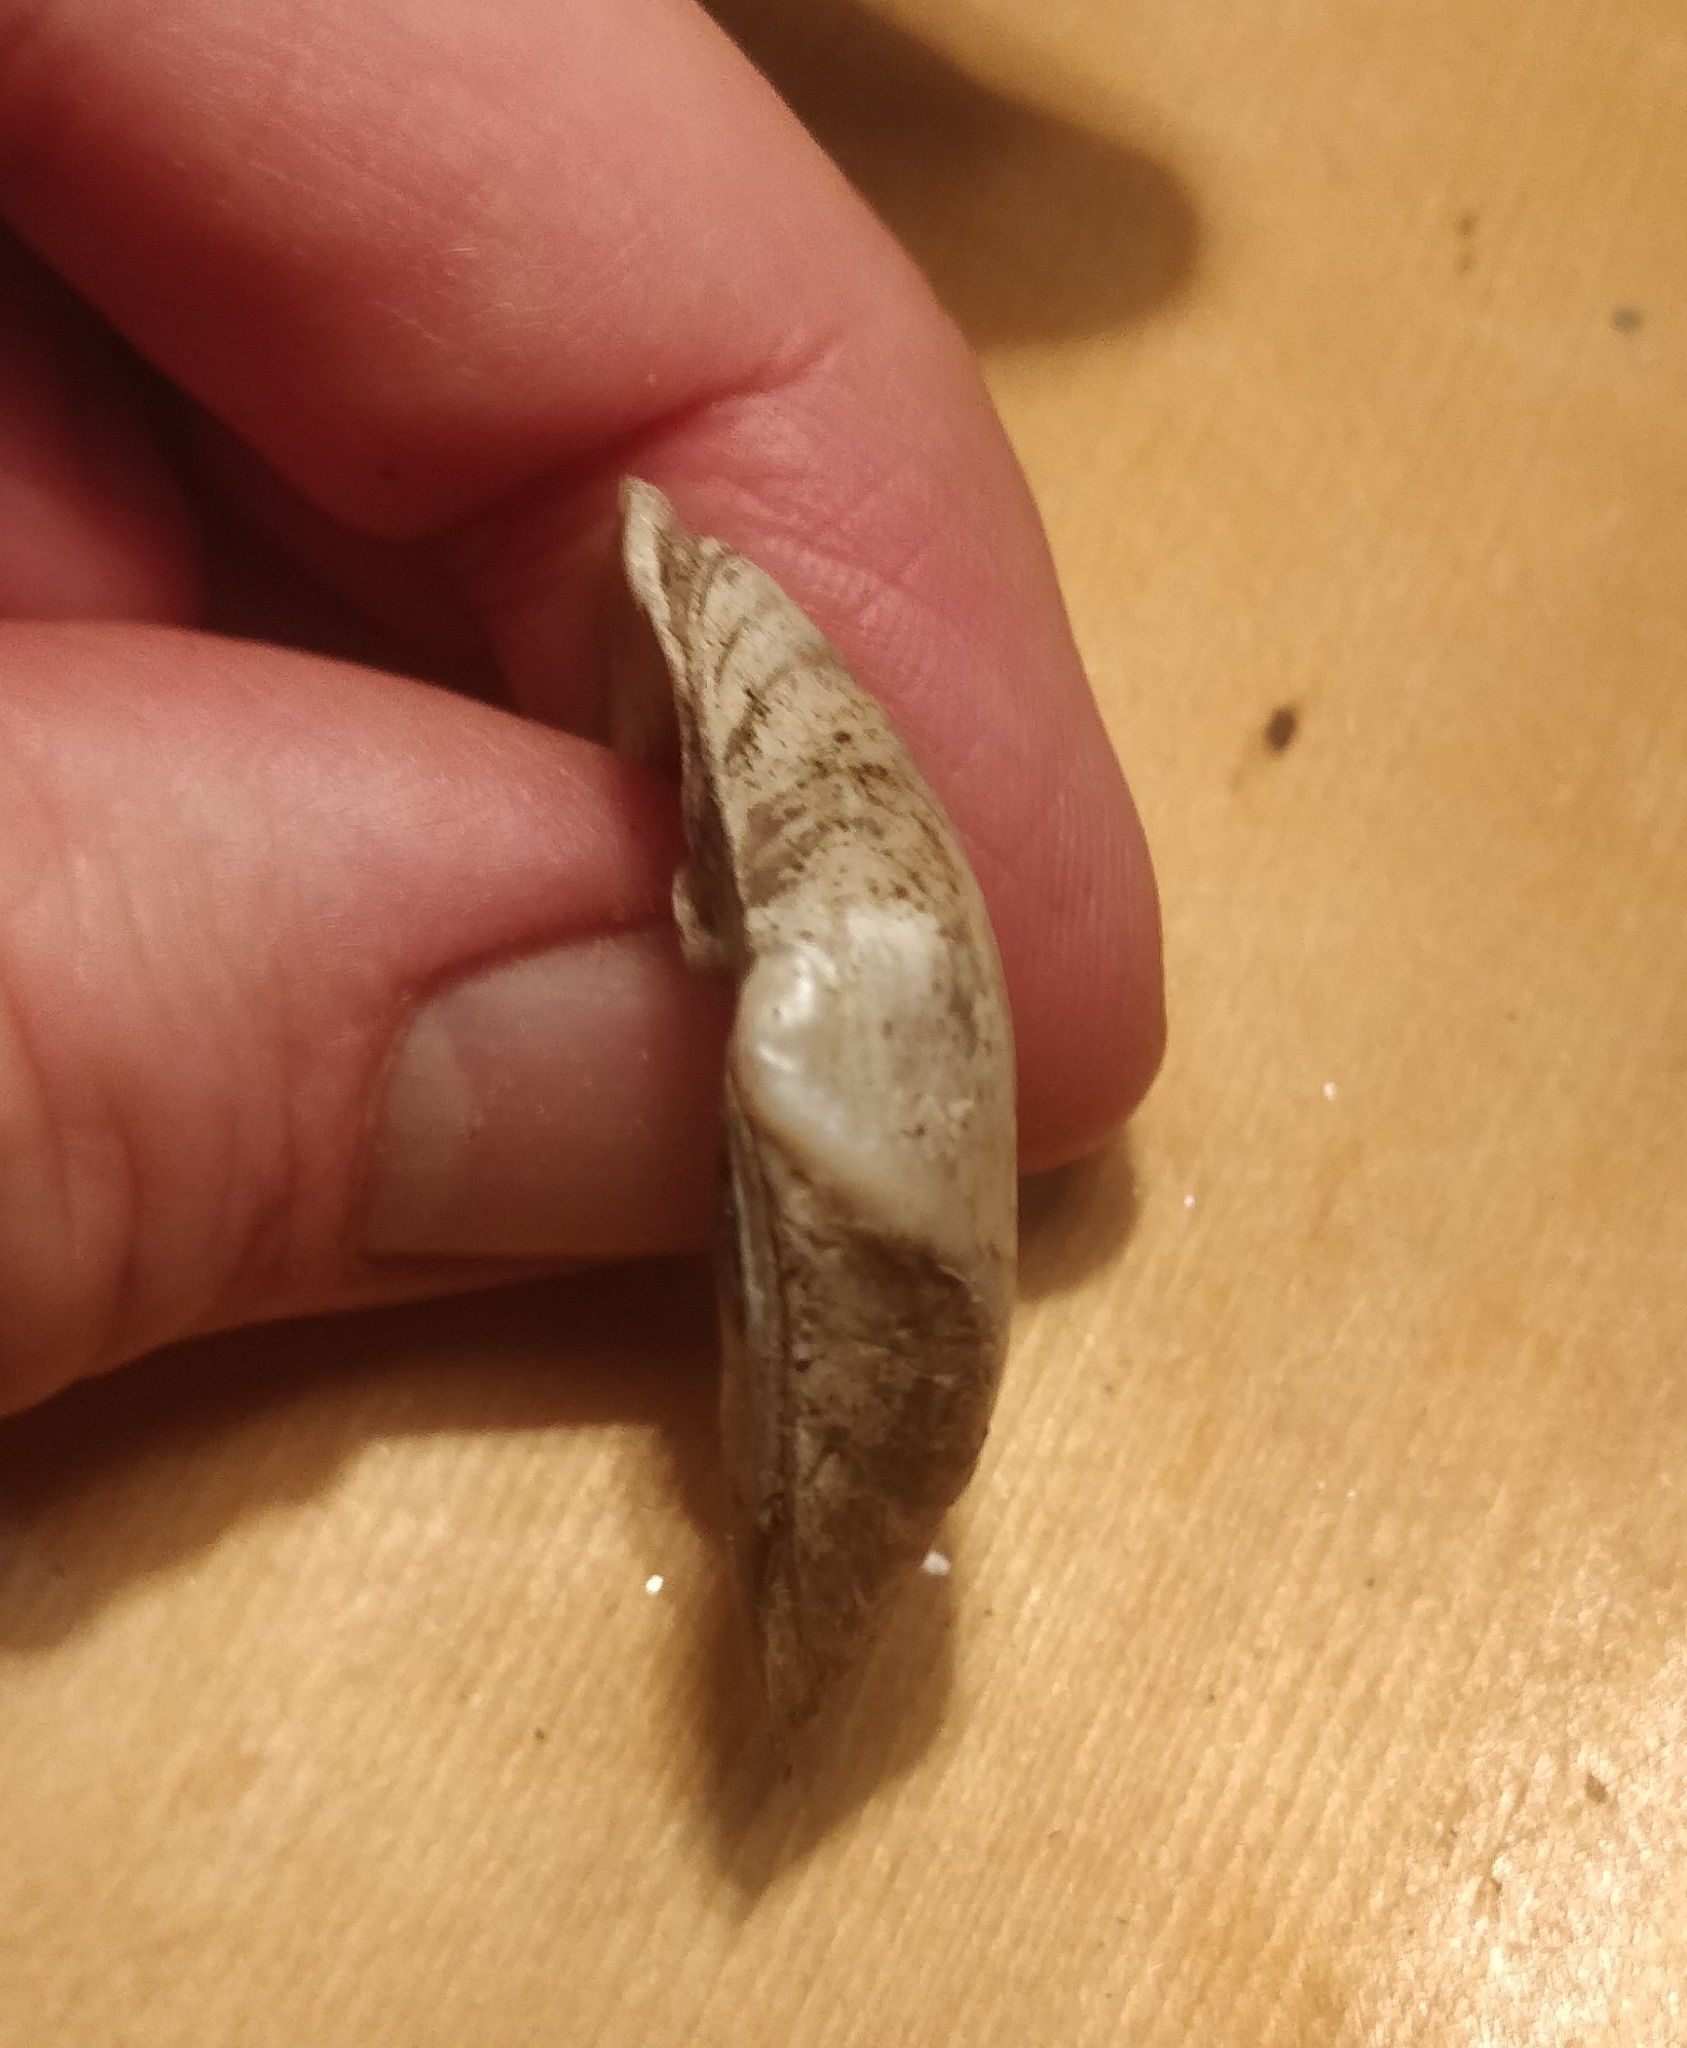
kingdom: Animalia
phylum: Mollusca
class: Bivalvia
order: Unionida
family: Unionidae
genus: Truncilla
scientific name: Truncilla truncata
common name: Deertoe
